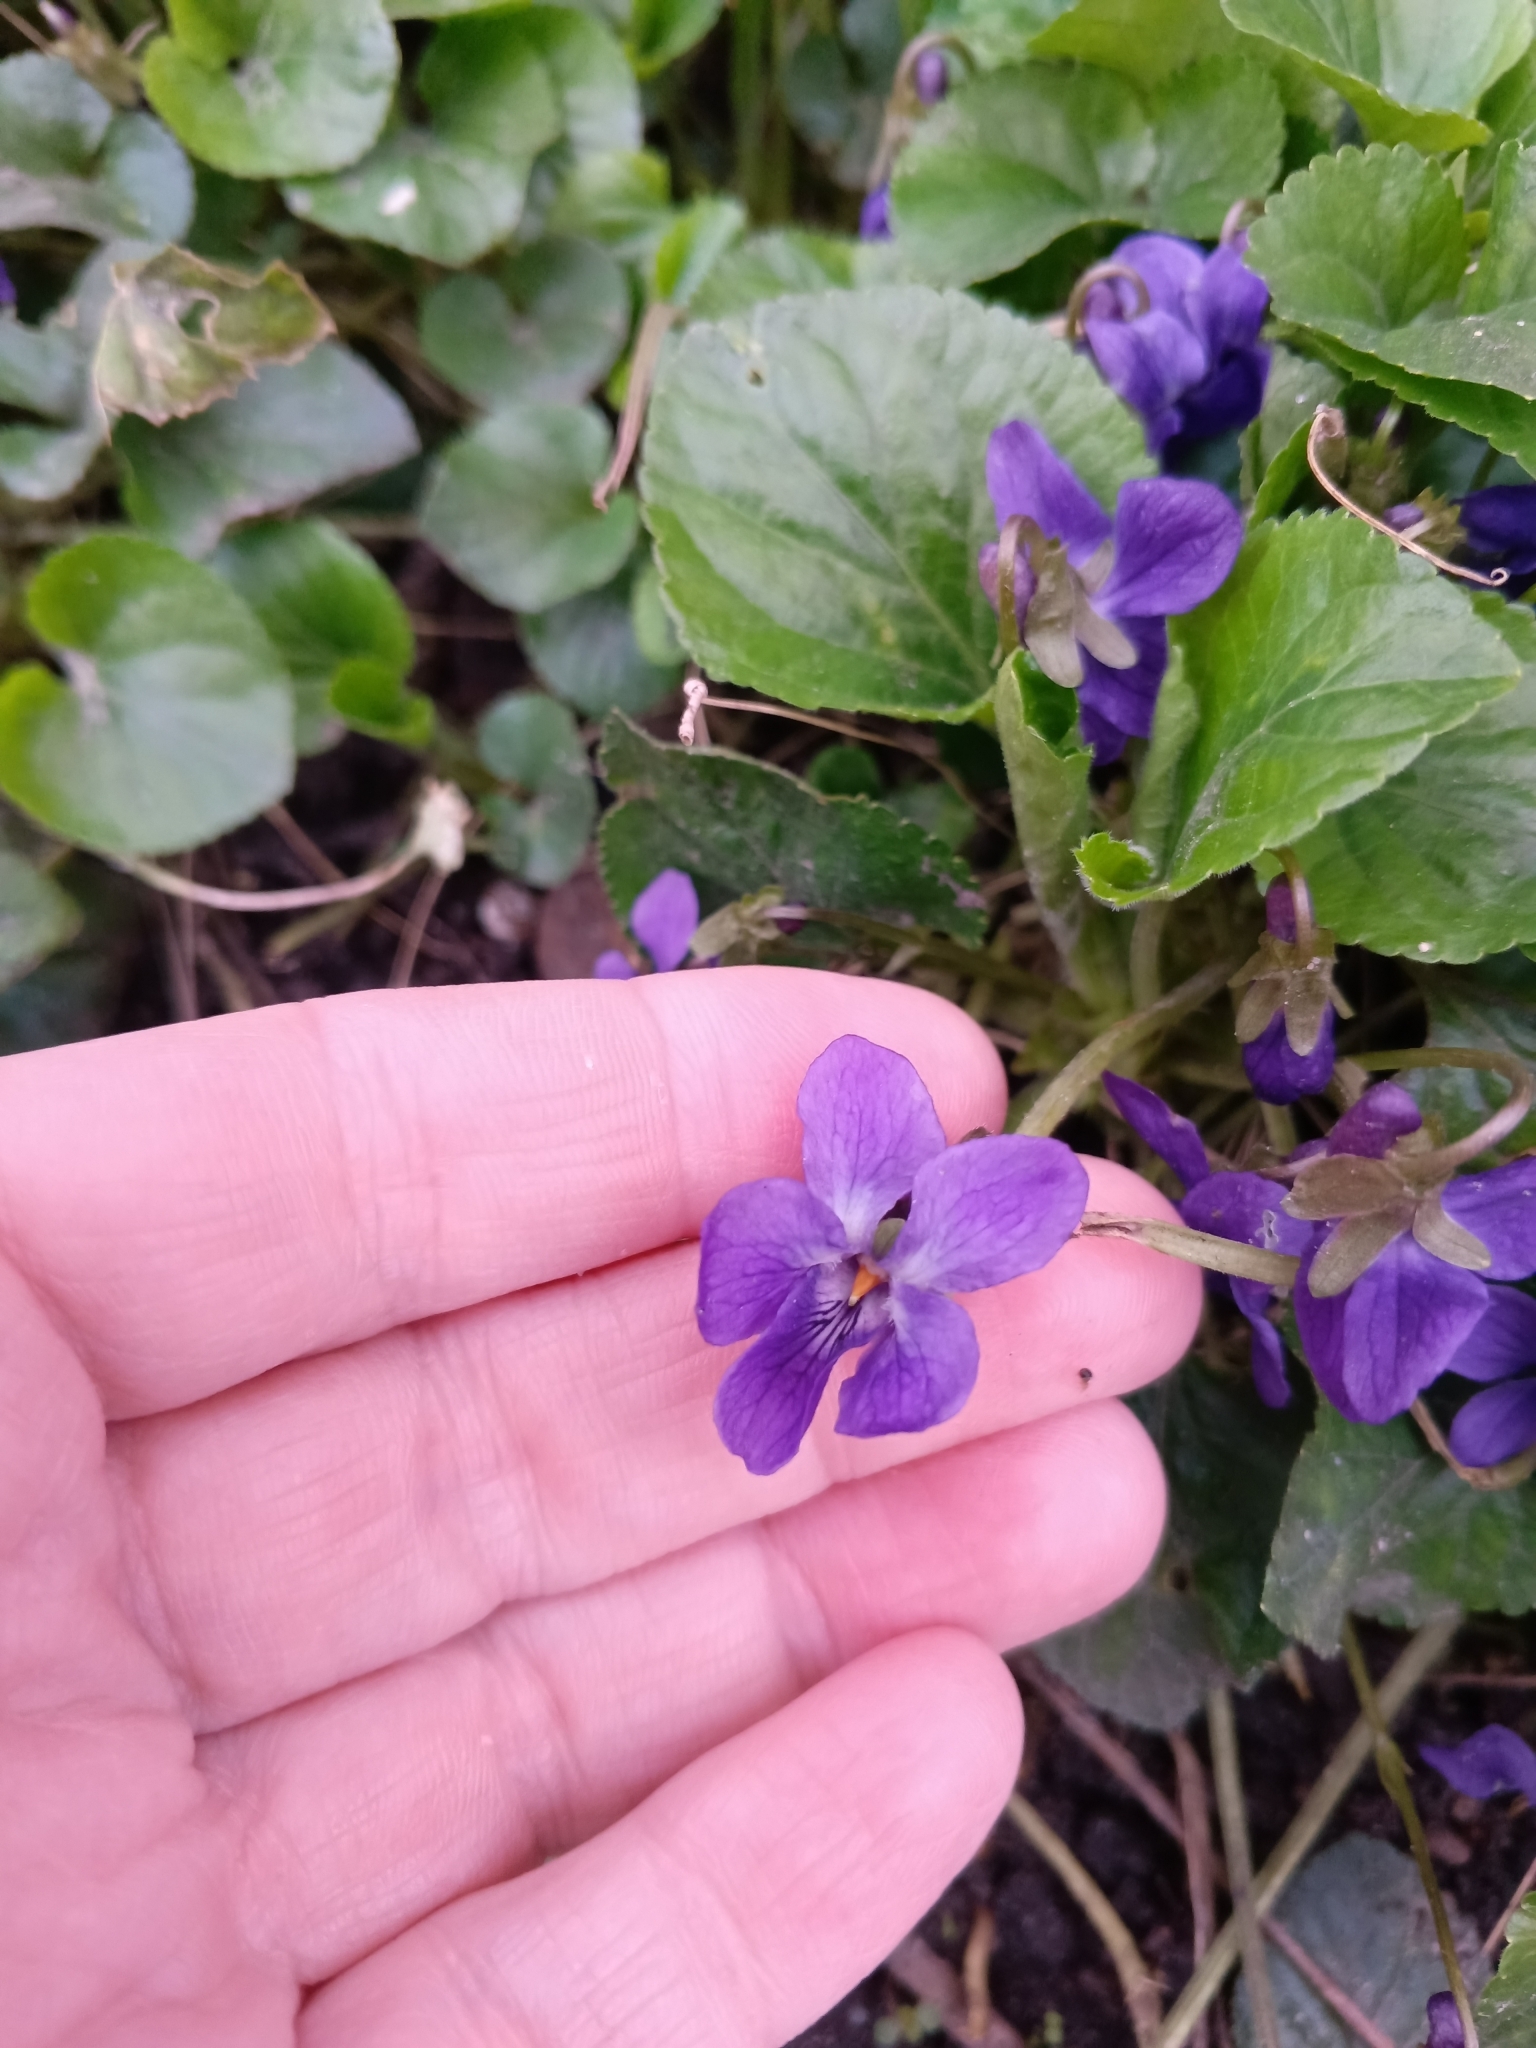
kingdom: Plantae
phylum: Tracheophyta
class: Magnoliopsida
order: Malpighiales
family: Violaceae
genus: Viola
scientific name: Viola odorata
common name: Sweet violet
